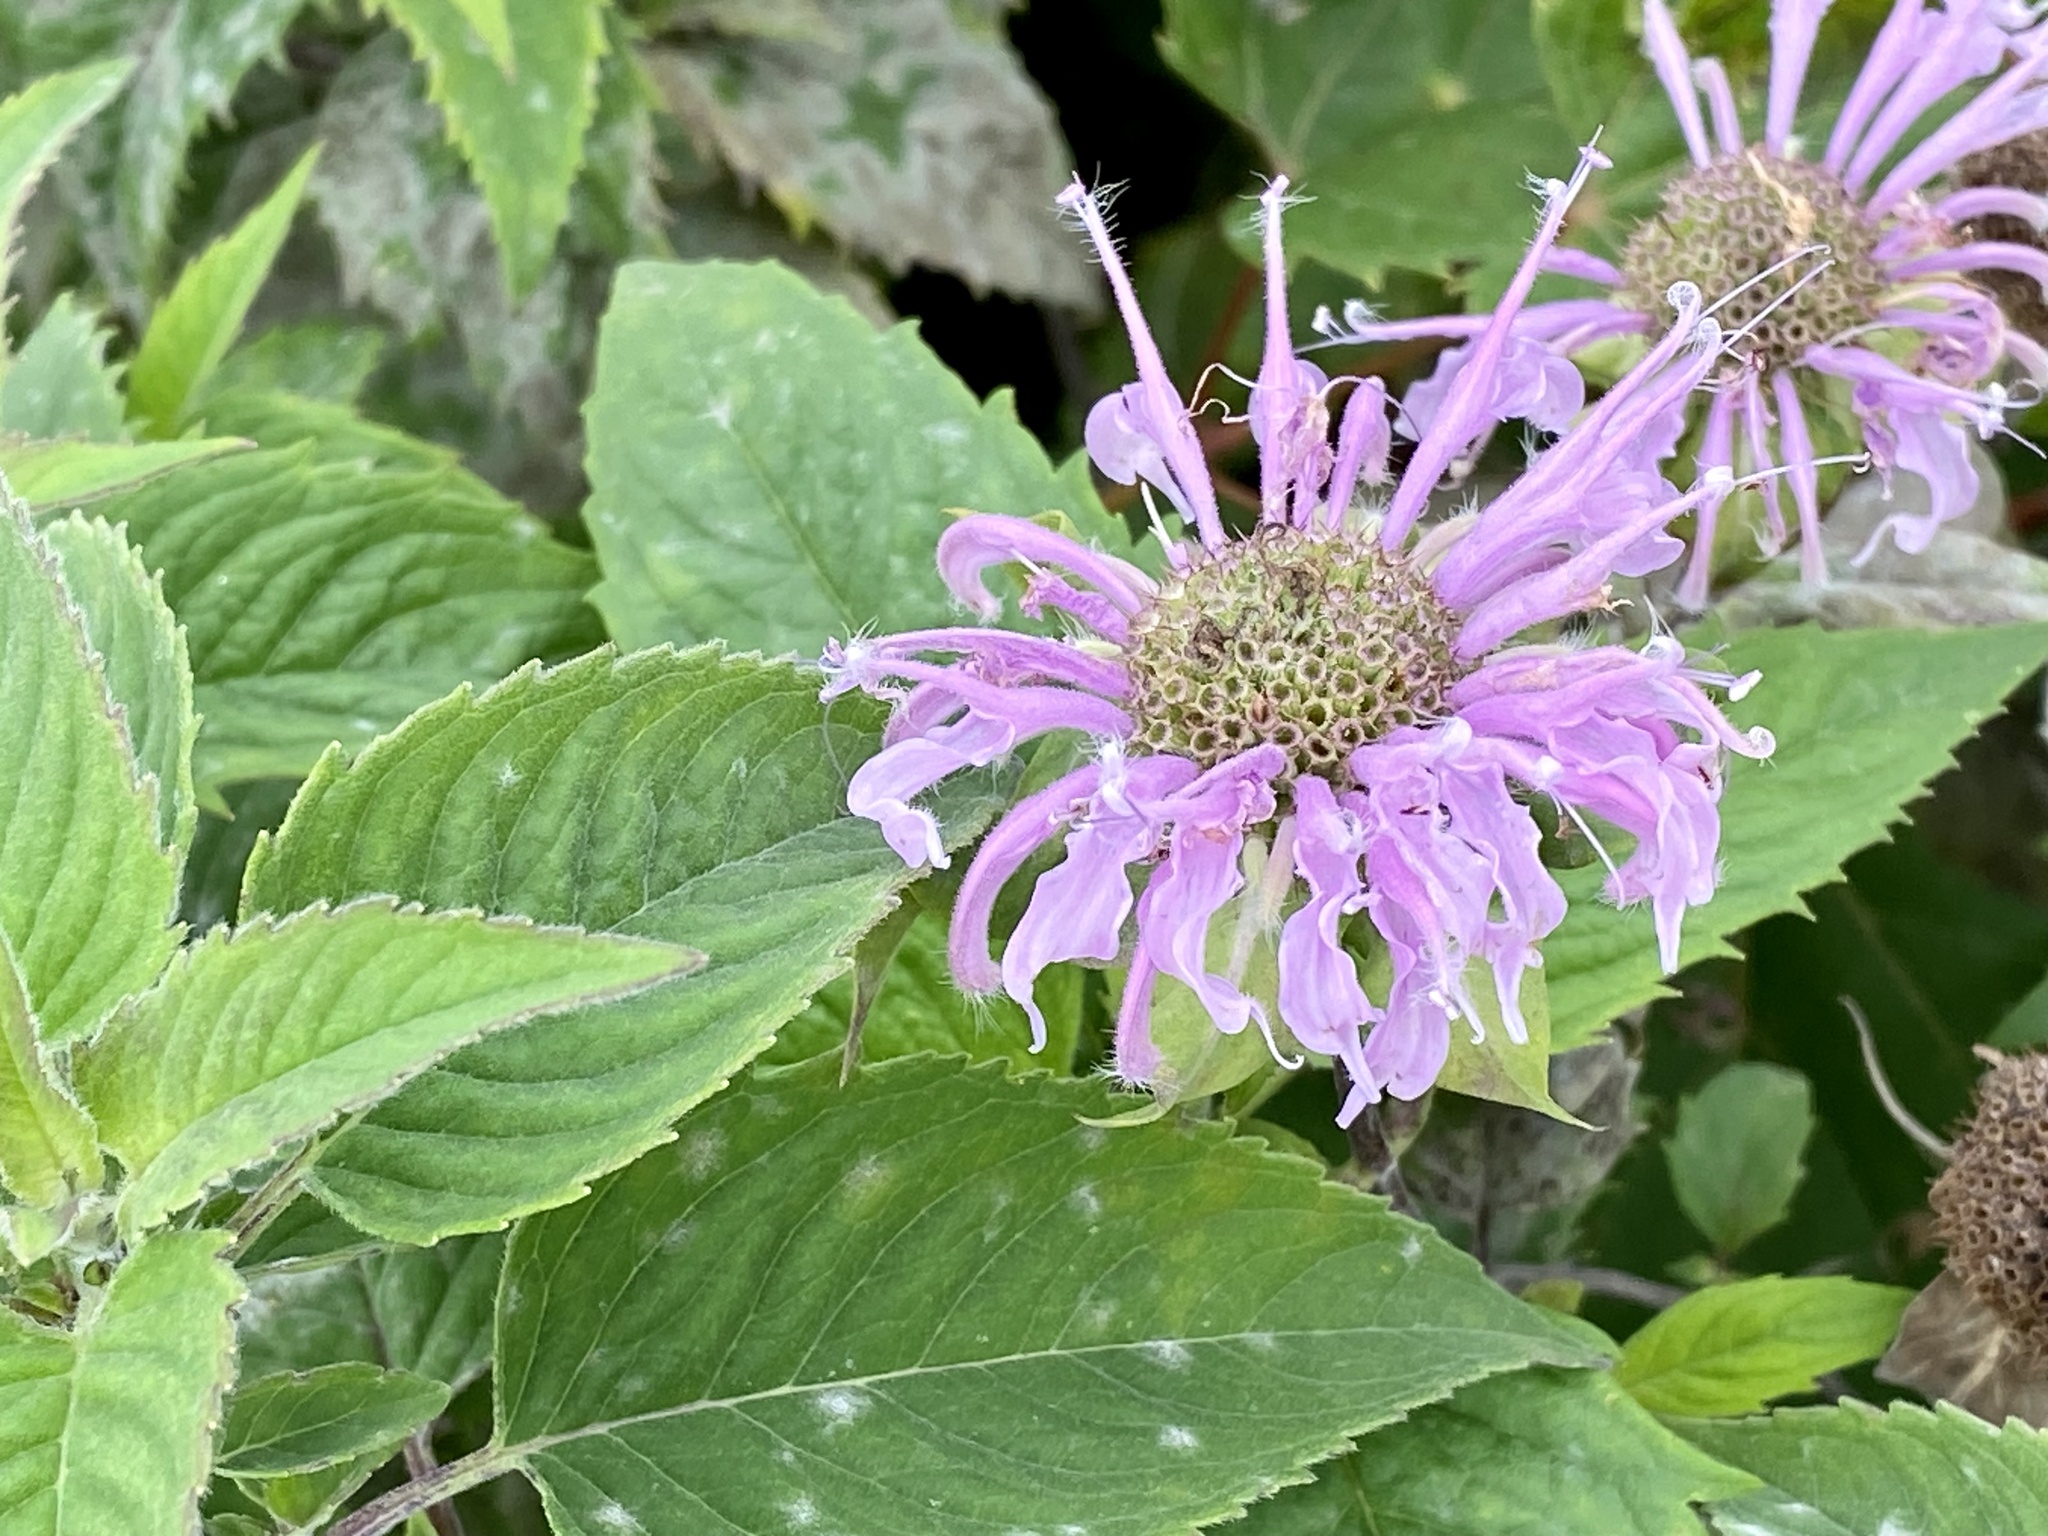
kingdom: Plantae
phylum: Tracheophyta
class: Magnoliopsida
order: Lamiales
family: Lamiaceae
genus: Monarda
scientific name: Monarda fistulosa
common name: Purple beebalm
